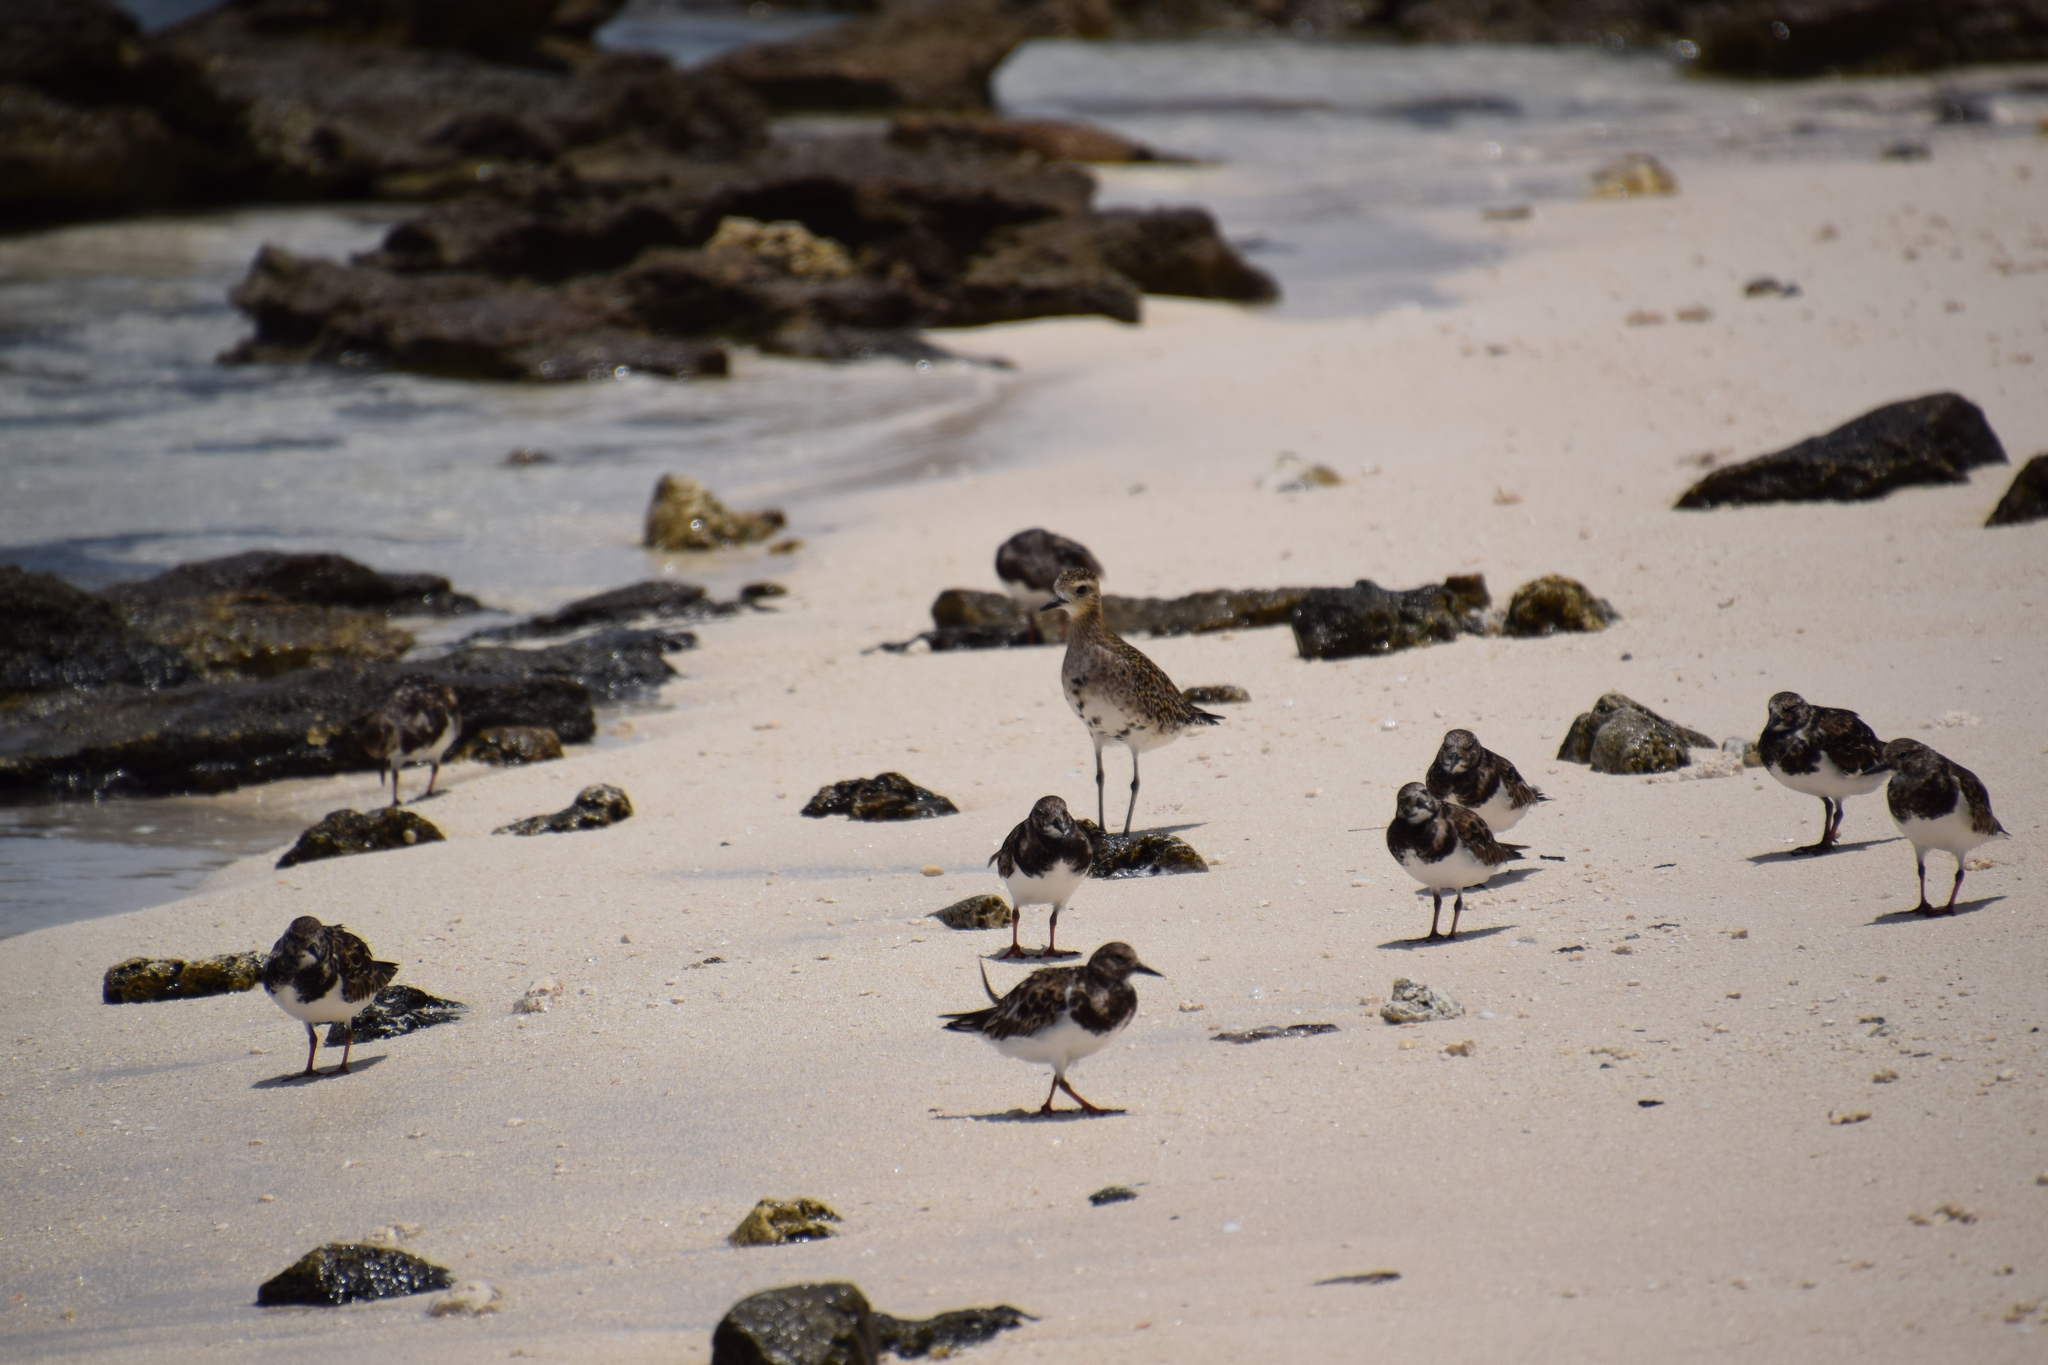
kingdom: Animalia
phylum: Chordata
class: Aves
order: Charadriiformes
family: Scolopacidae
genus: Arenaria
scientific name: Arenaria interpres
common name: Ruddy turnstone
